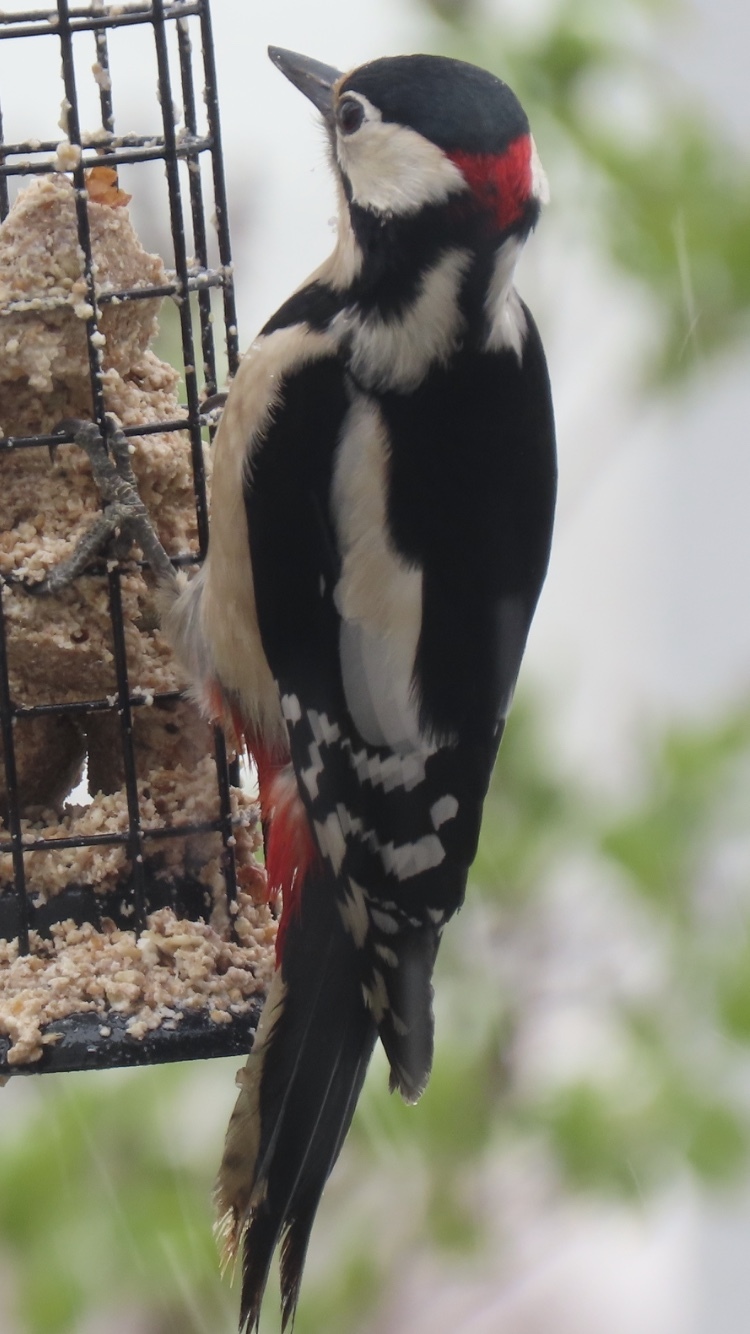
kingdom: Animalia
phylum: Chordata
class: Aves
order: Piciformes
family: Picidae
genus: Dendrocopos
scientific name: Dendrocopos major
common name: Great spotted woodpecker
